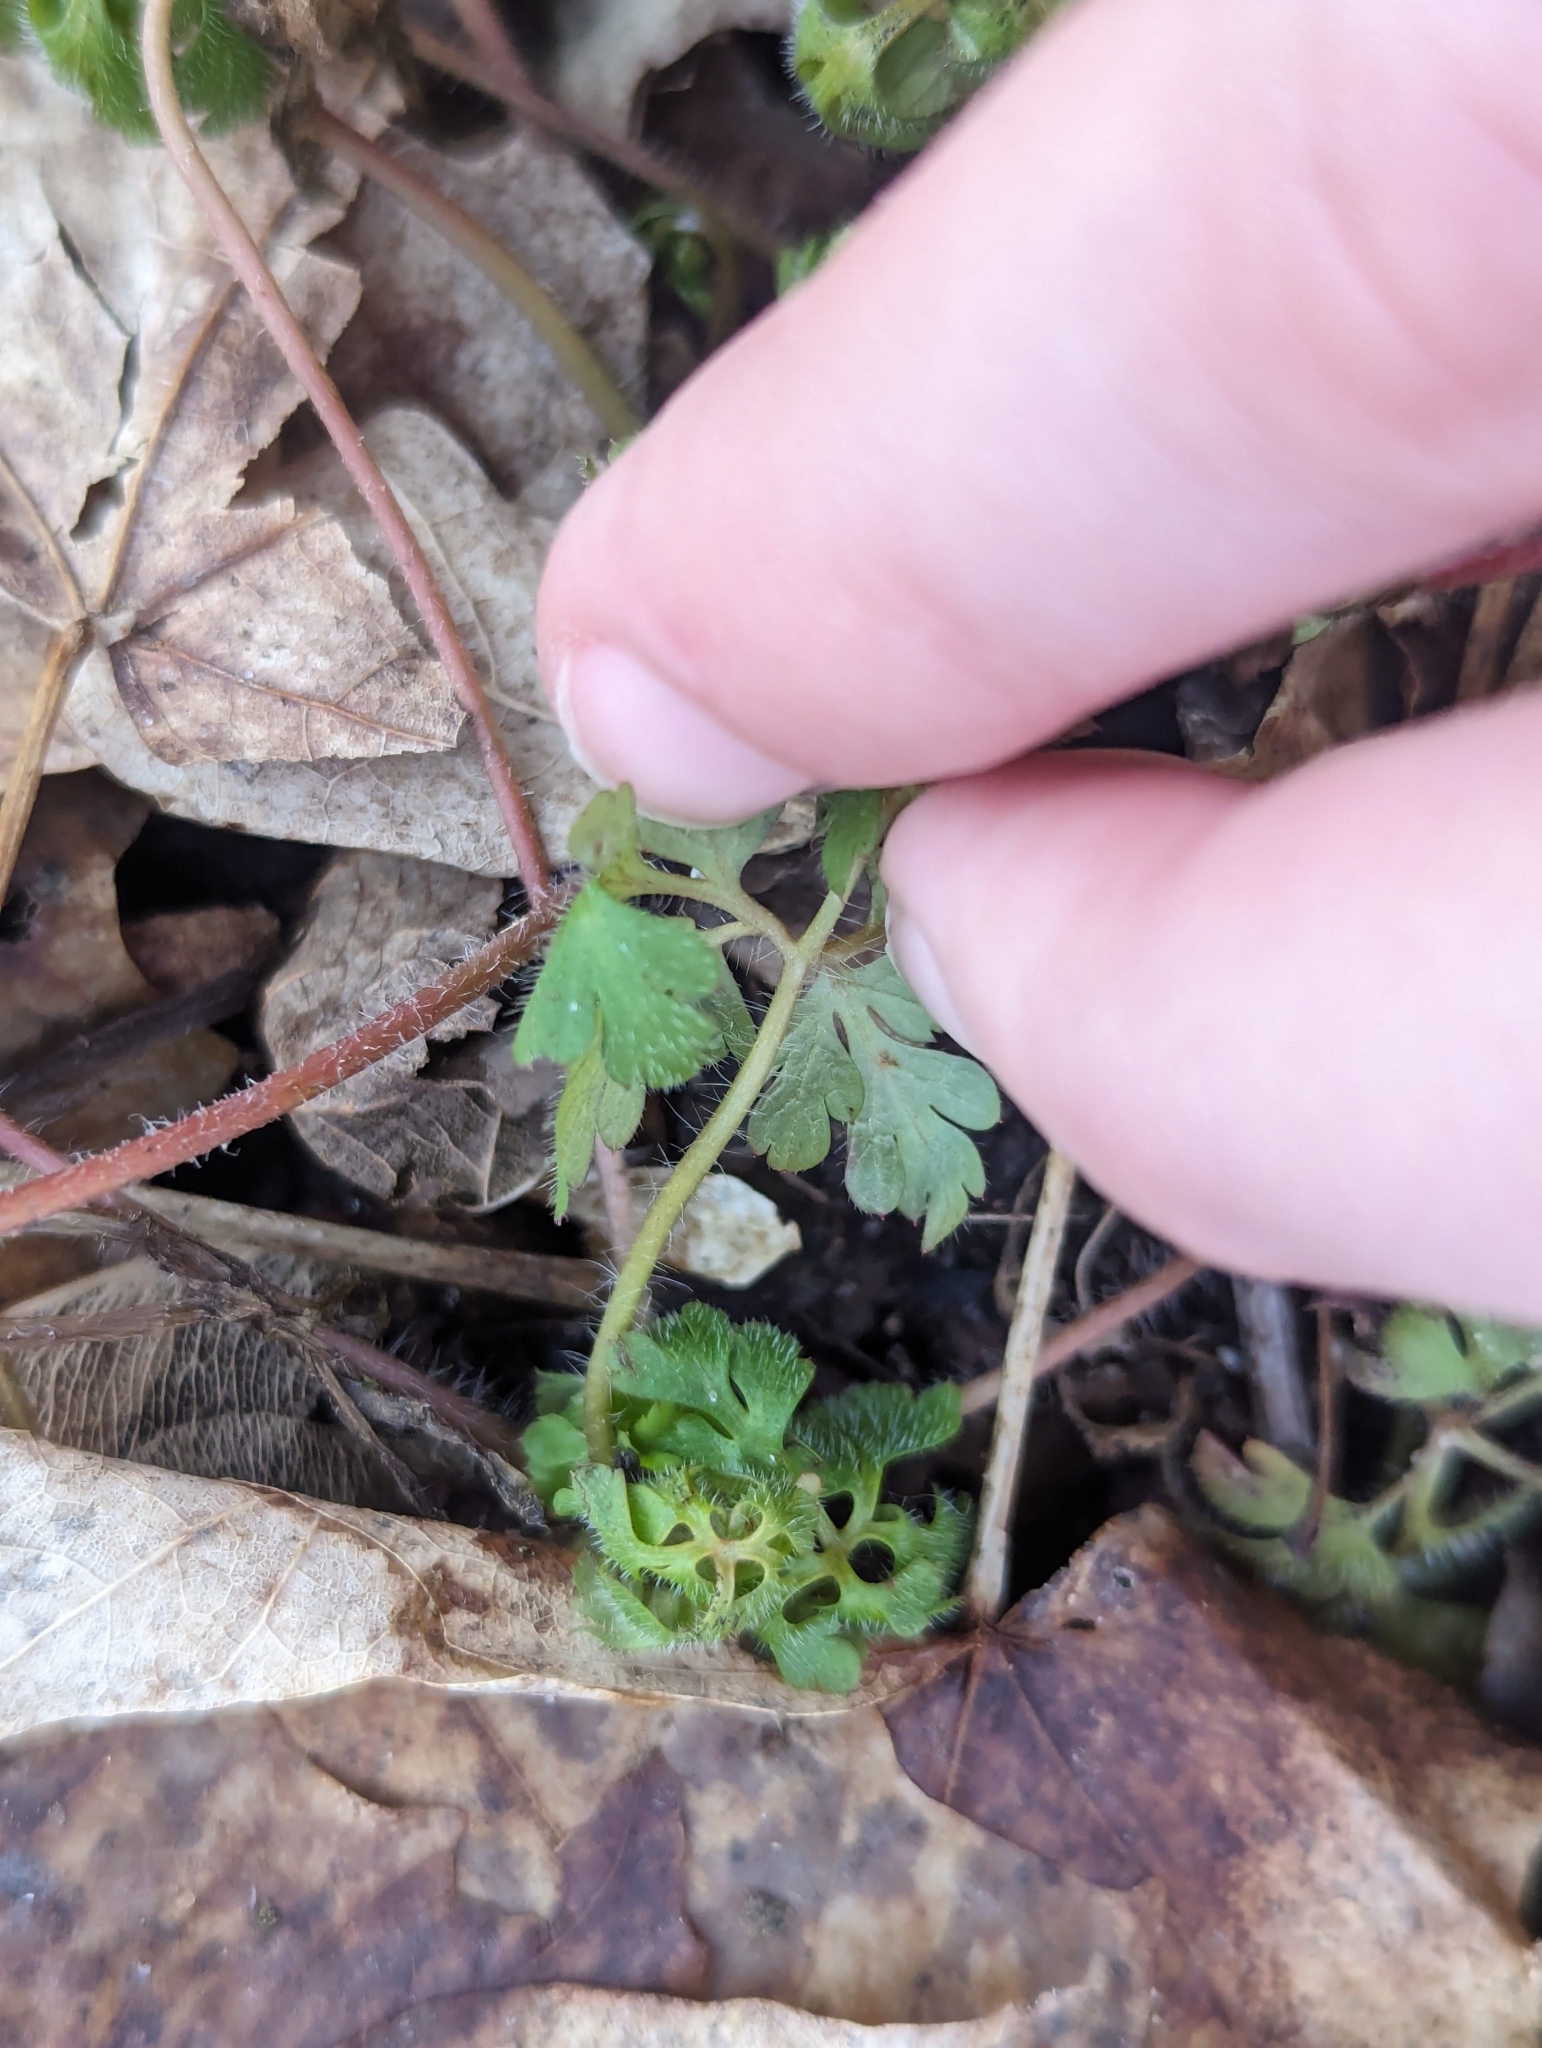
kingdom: Plantae
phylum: Tracheophyta
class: Magnoliopsida
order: Geraniales
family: Geraniaceae
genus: Geranium
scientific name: Geranium robertianum
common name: Herb-robert
